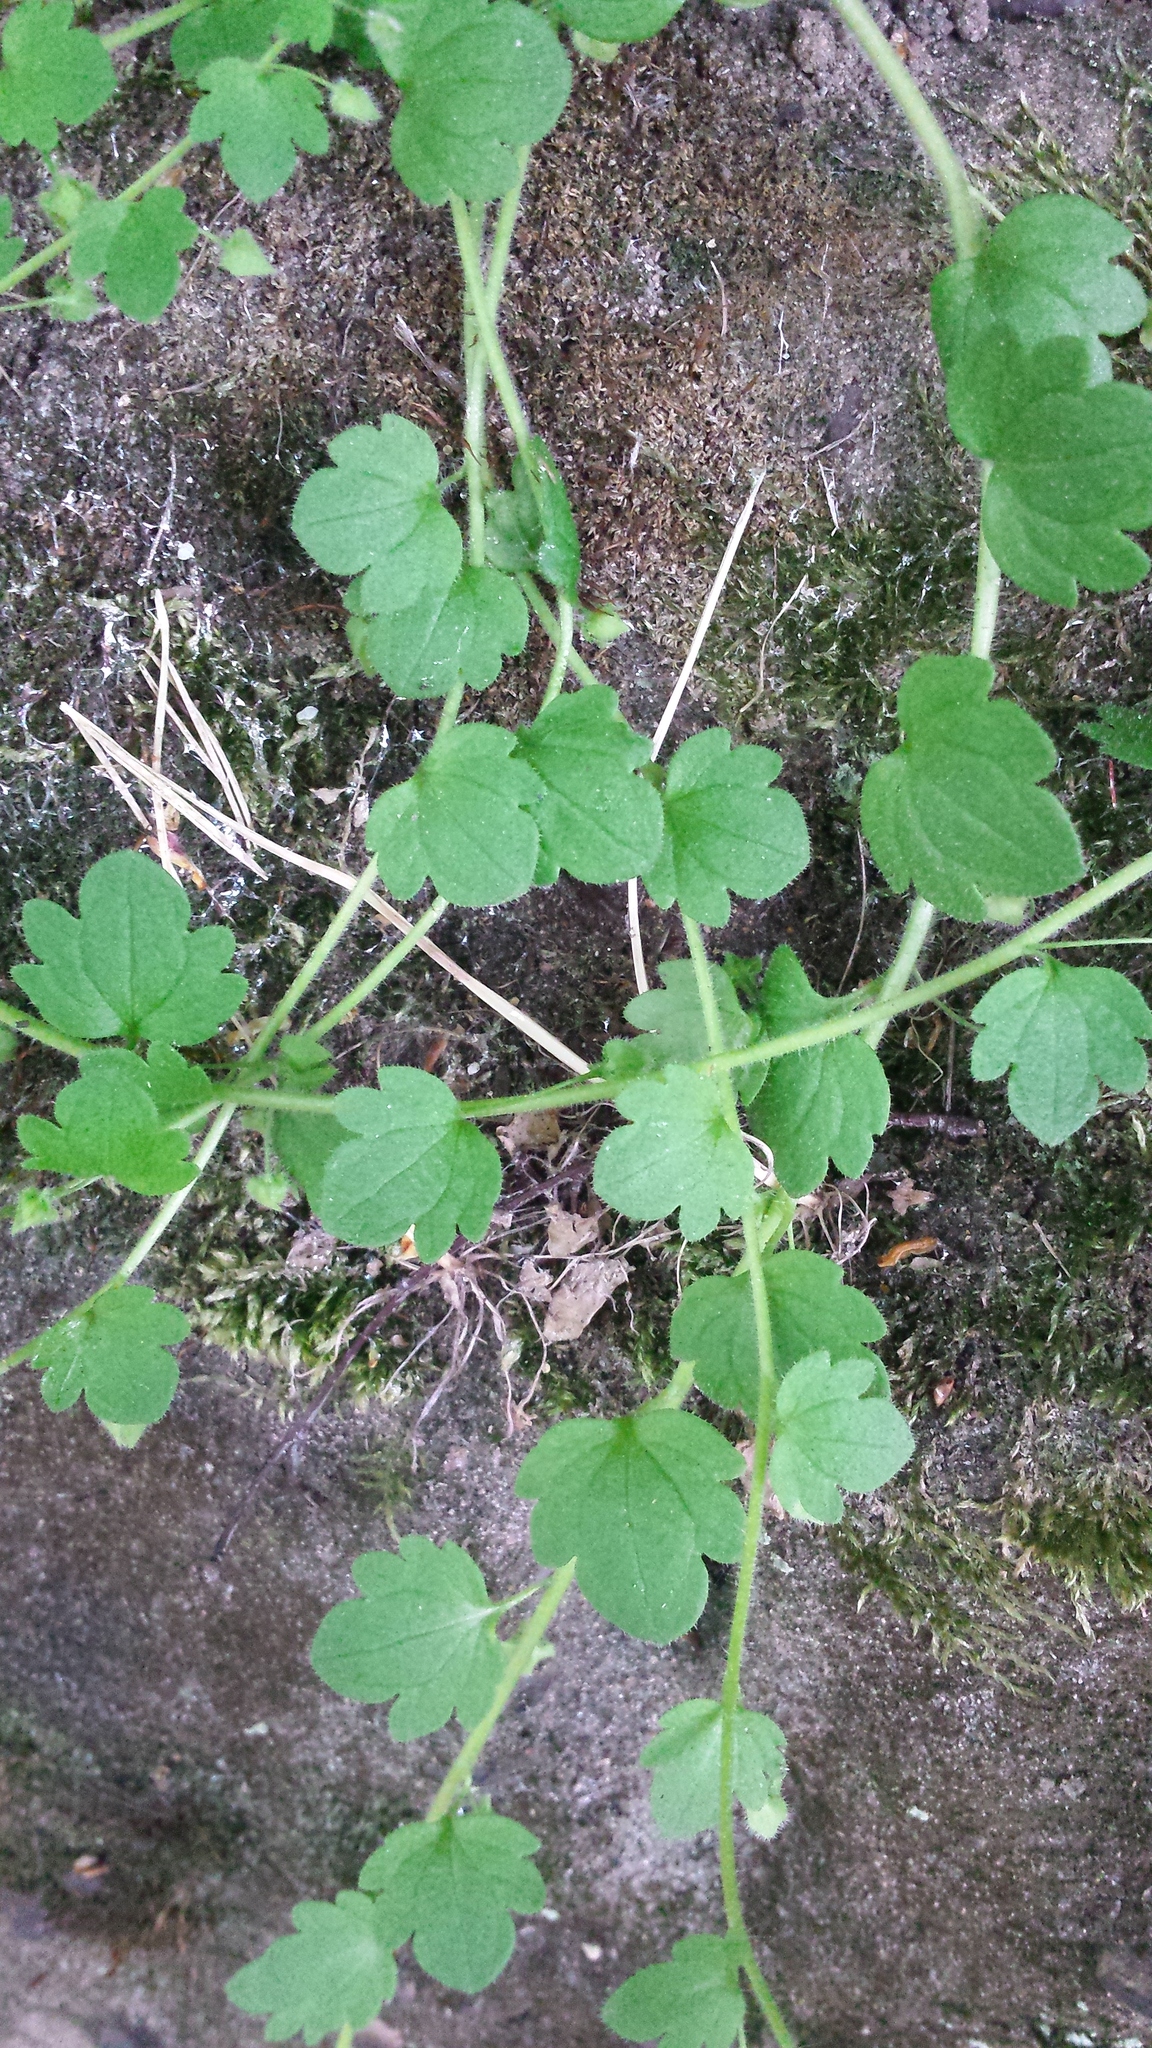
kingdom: Plantae
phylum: Tracheophyta
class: Magnoliopsida
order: Lamiales
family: Plantaginaceae
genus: Veronica
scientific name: Veronica hederifolia
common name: Ivy-leaved speedwell
